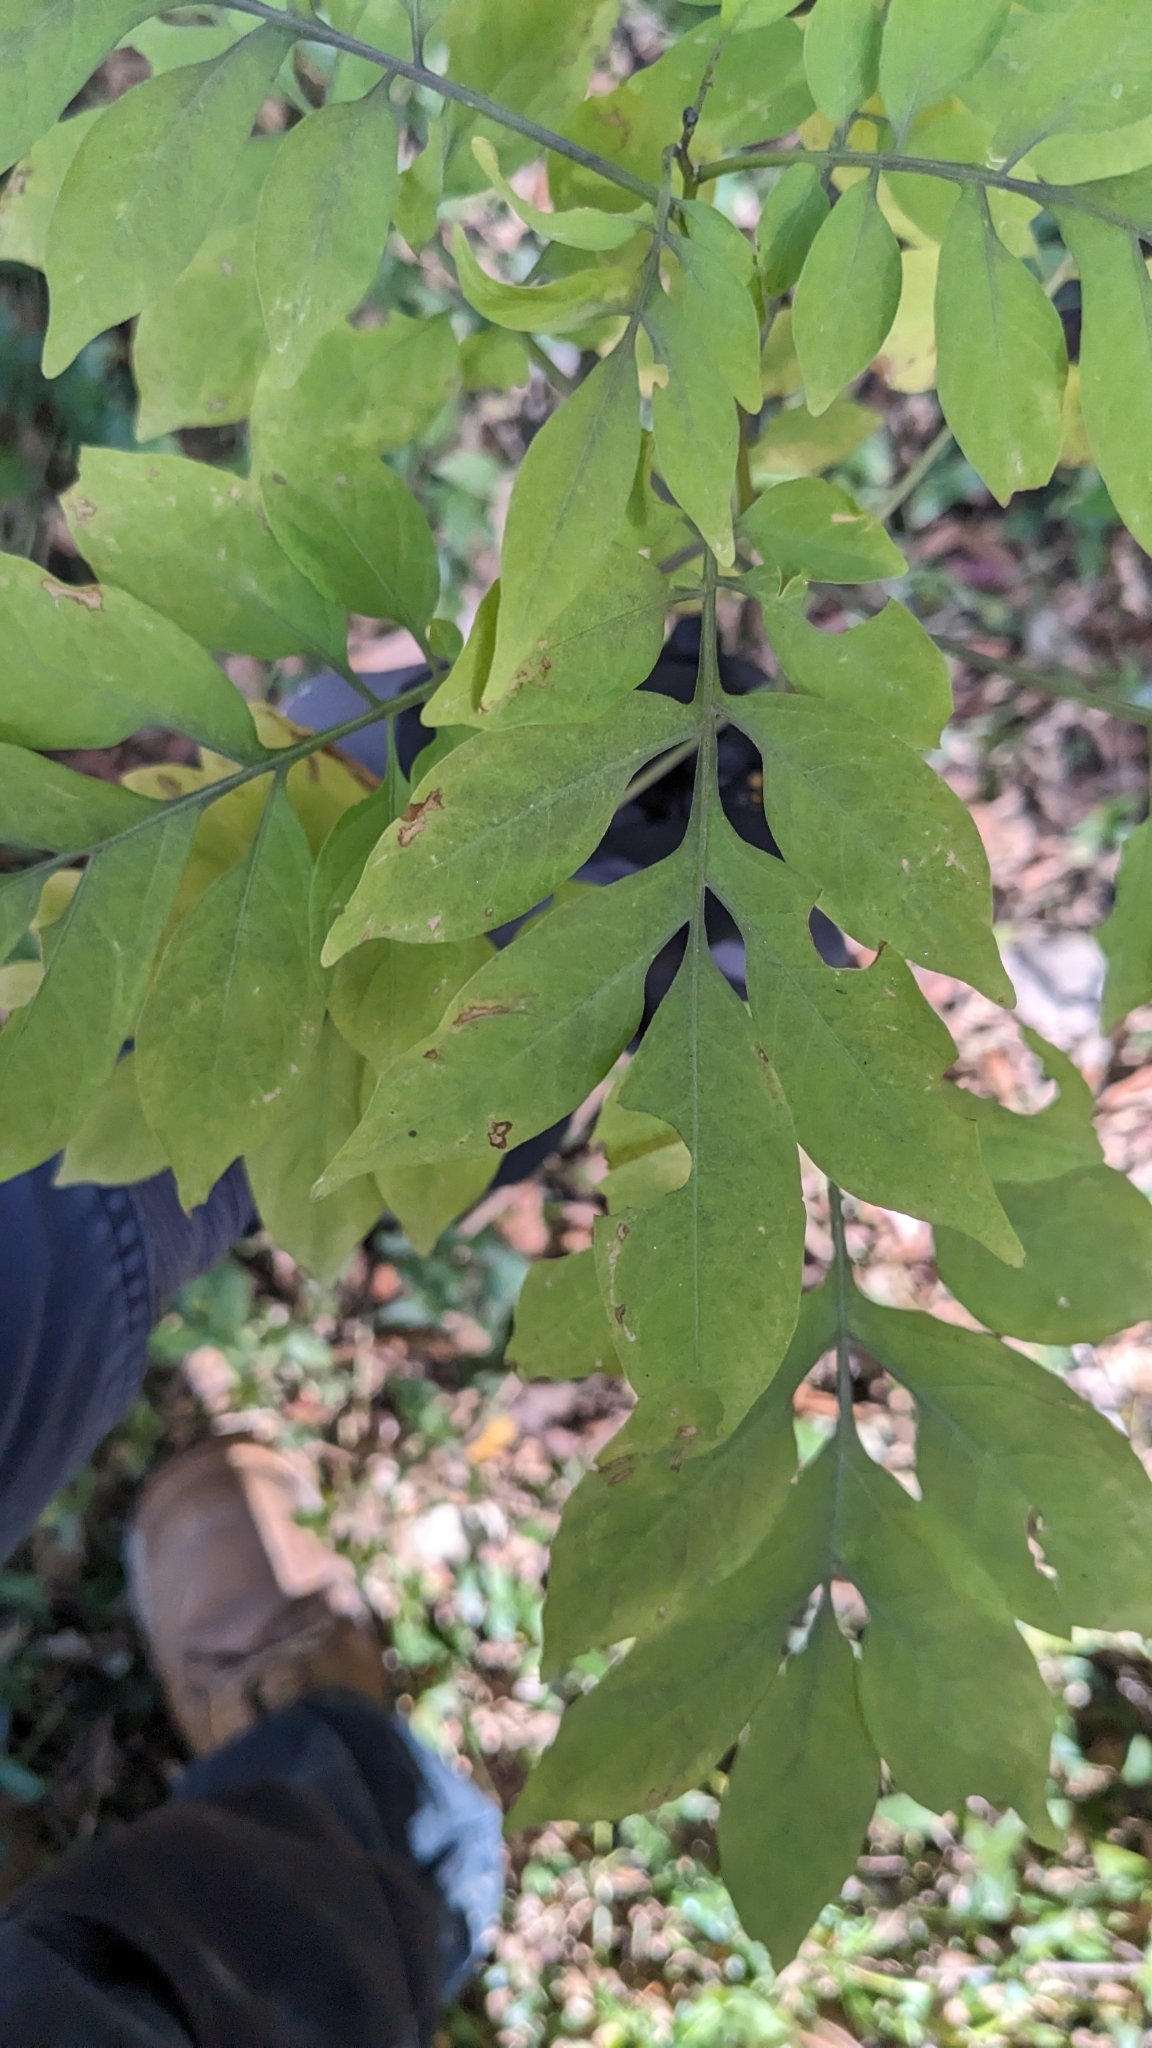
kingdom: Plantae
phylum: Tracheophyta
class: Magnoliopsida
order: Solanales
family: Solanaceae
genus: Solanum
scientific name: Solanum seaforthianum
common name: Brazilian nightshade
